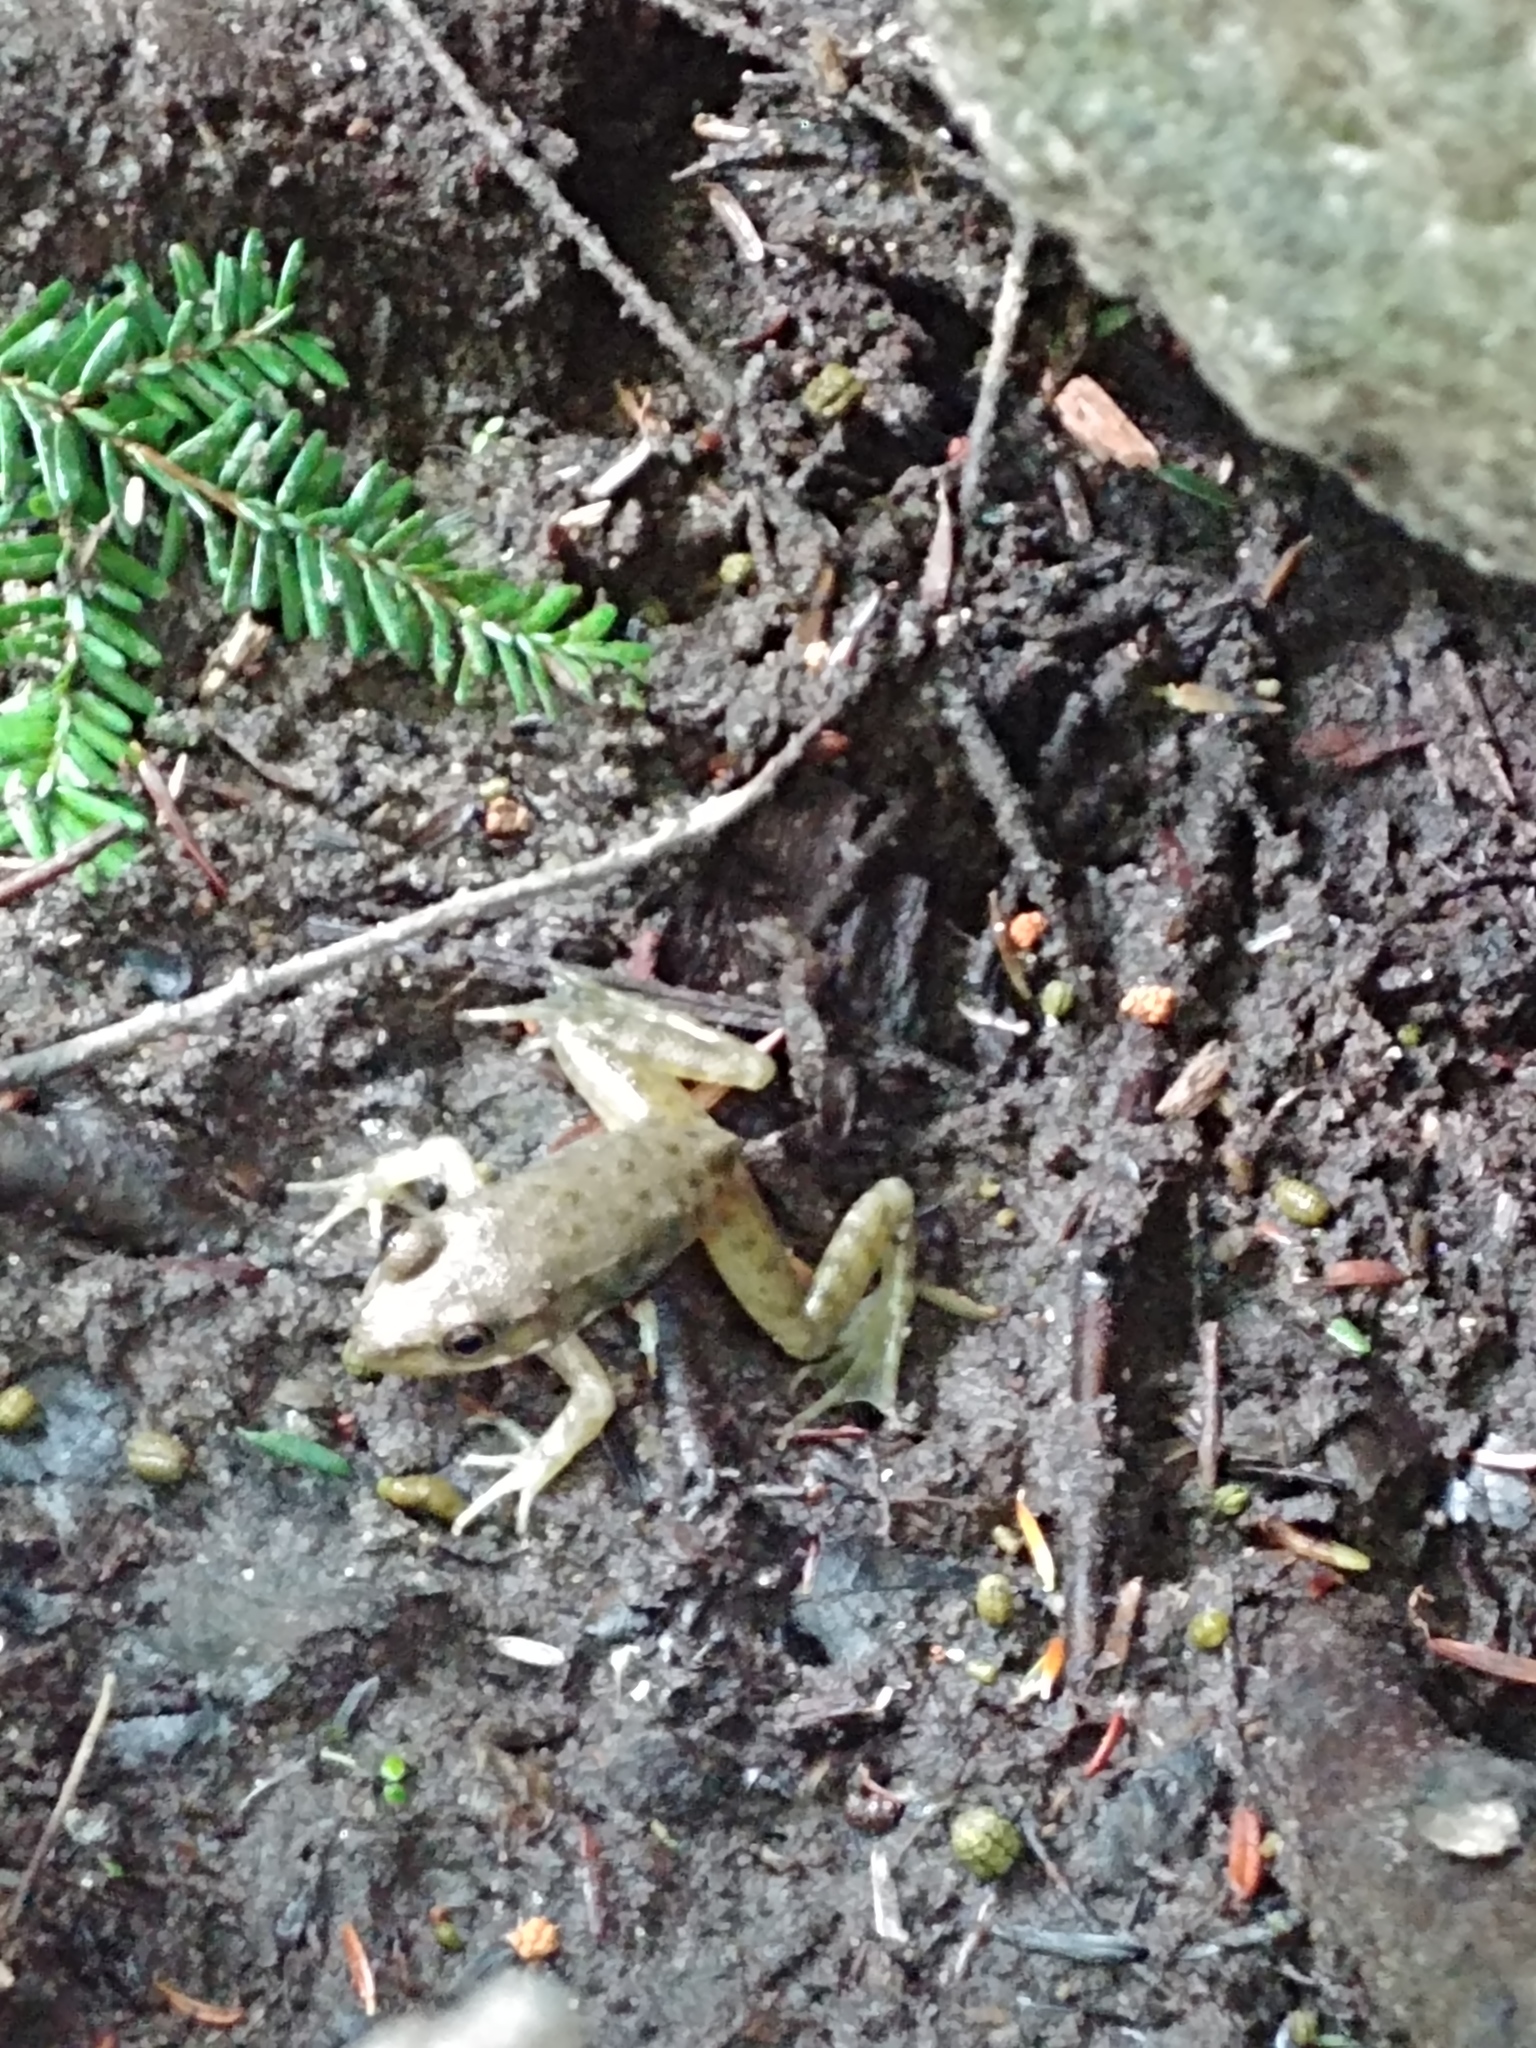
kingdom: Animalia
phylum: Chordata
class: Amphibia
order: Anura
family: Ranidae
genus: Lithobates
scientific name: Lithobates clamitans
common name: Green frog
